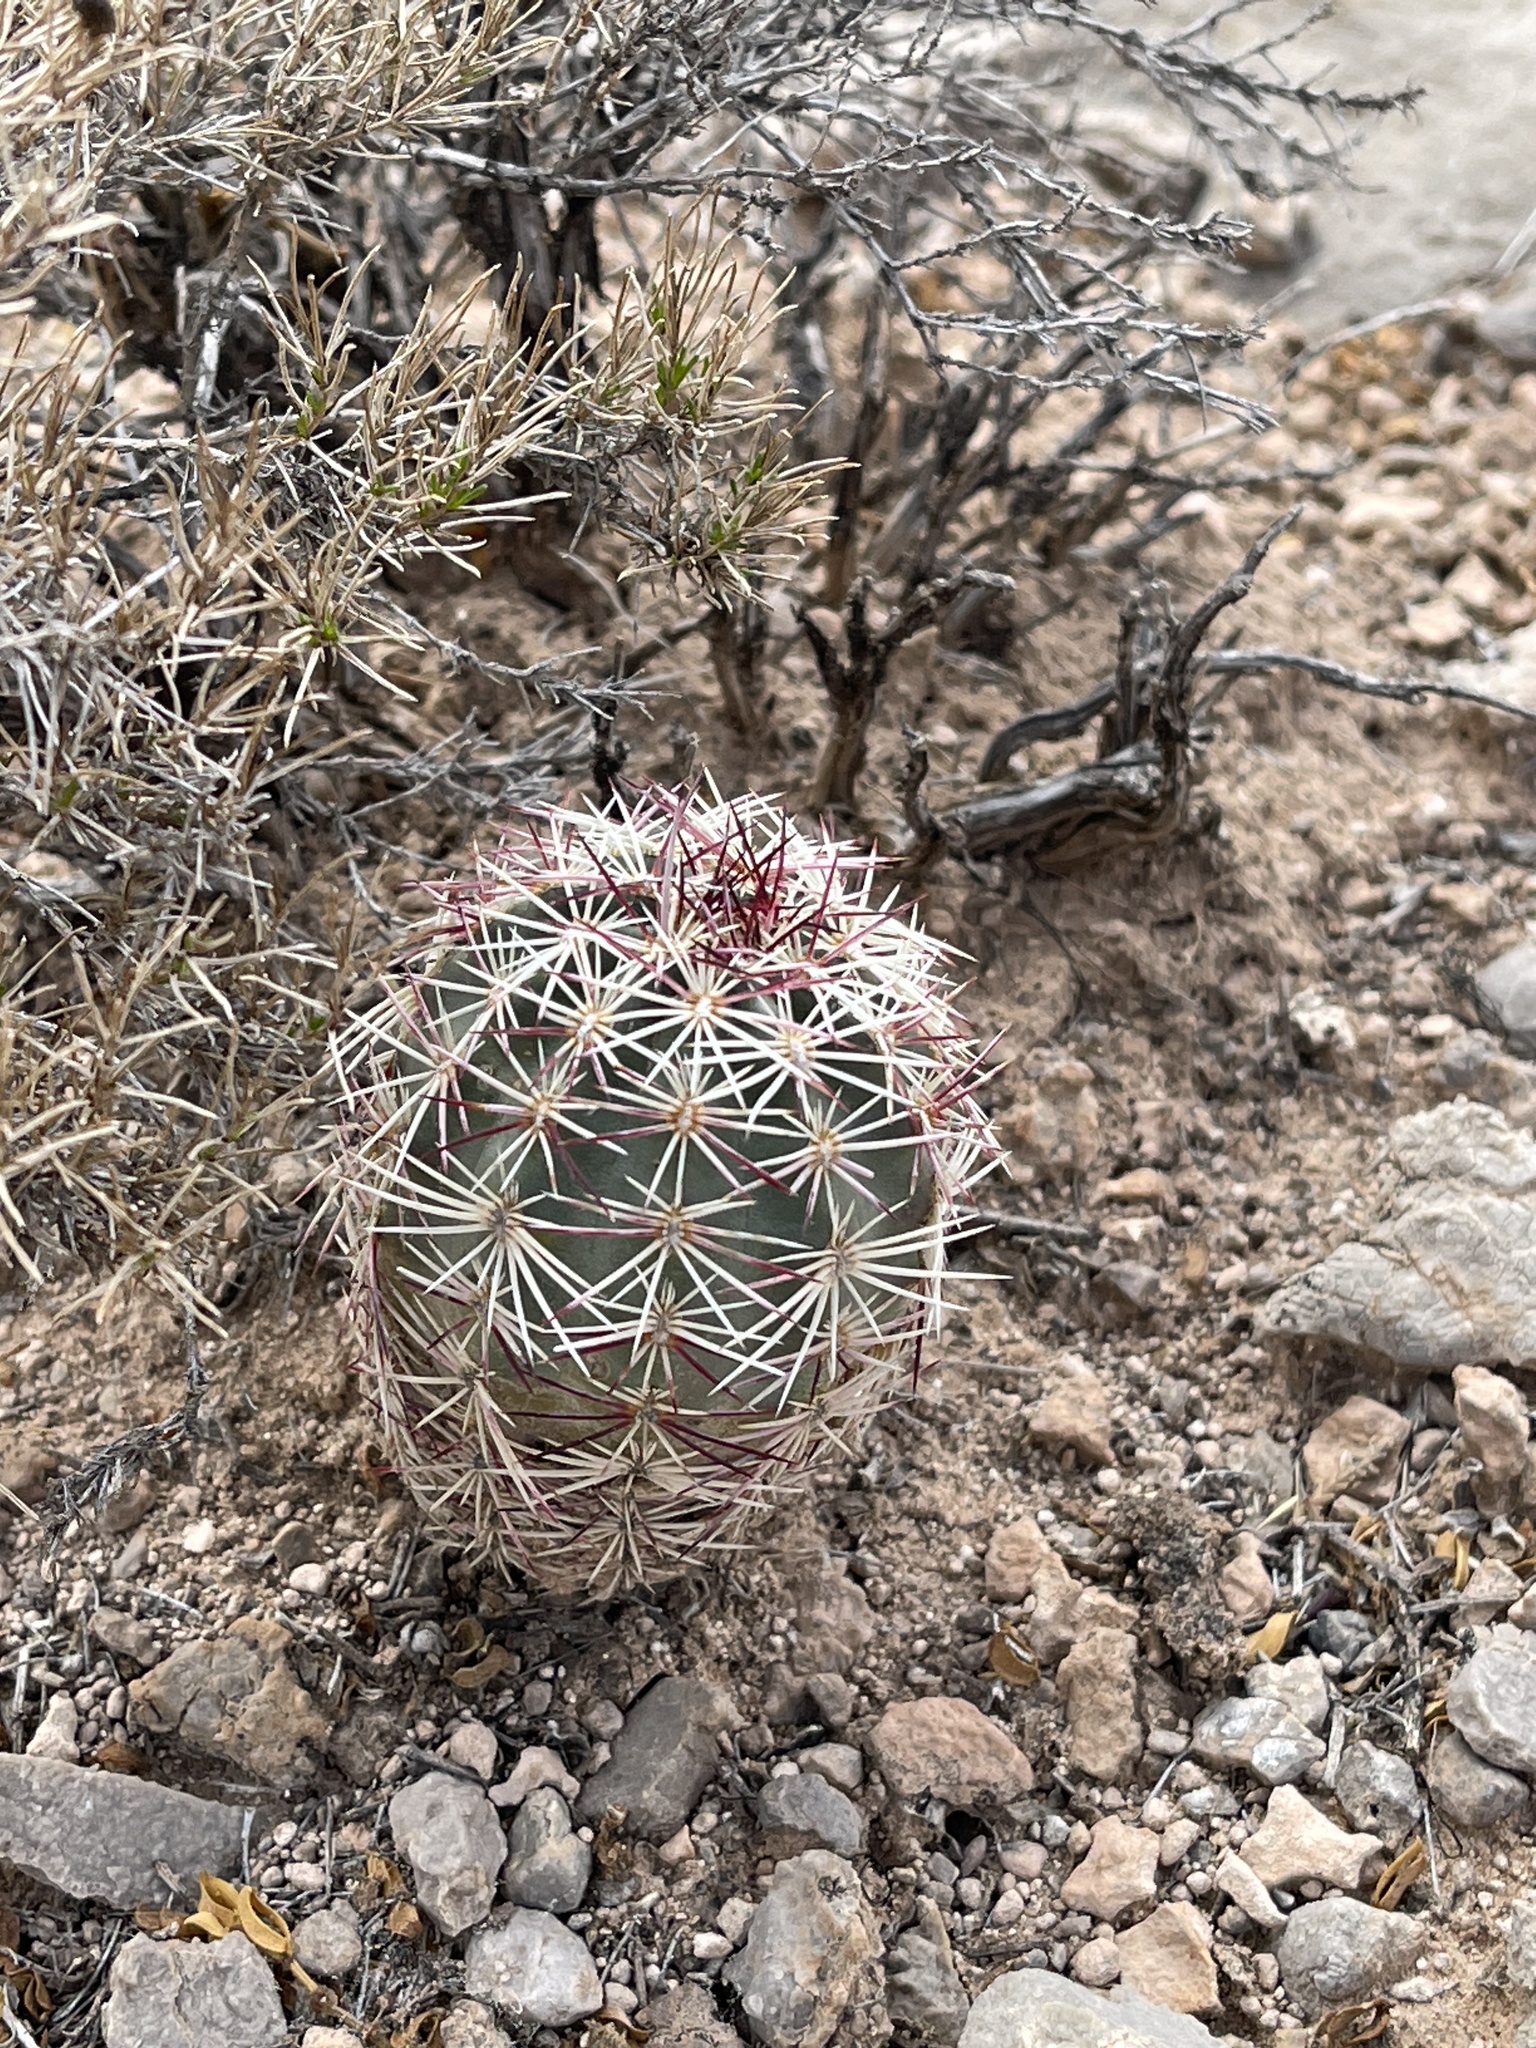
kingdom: Plantae
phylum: Tracheophyta
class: Magnoliopsida
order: Caryophyllales
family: Cactaceae
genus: Echinocereus
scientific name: Echinocereus viridiflorus
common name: Nylon hedgehog cactus
